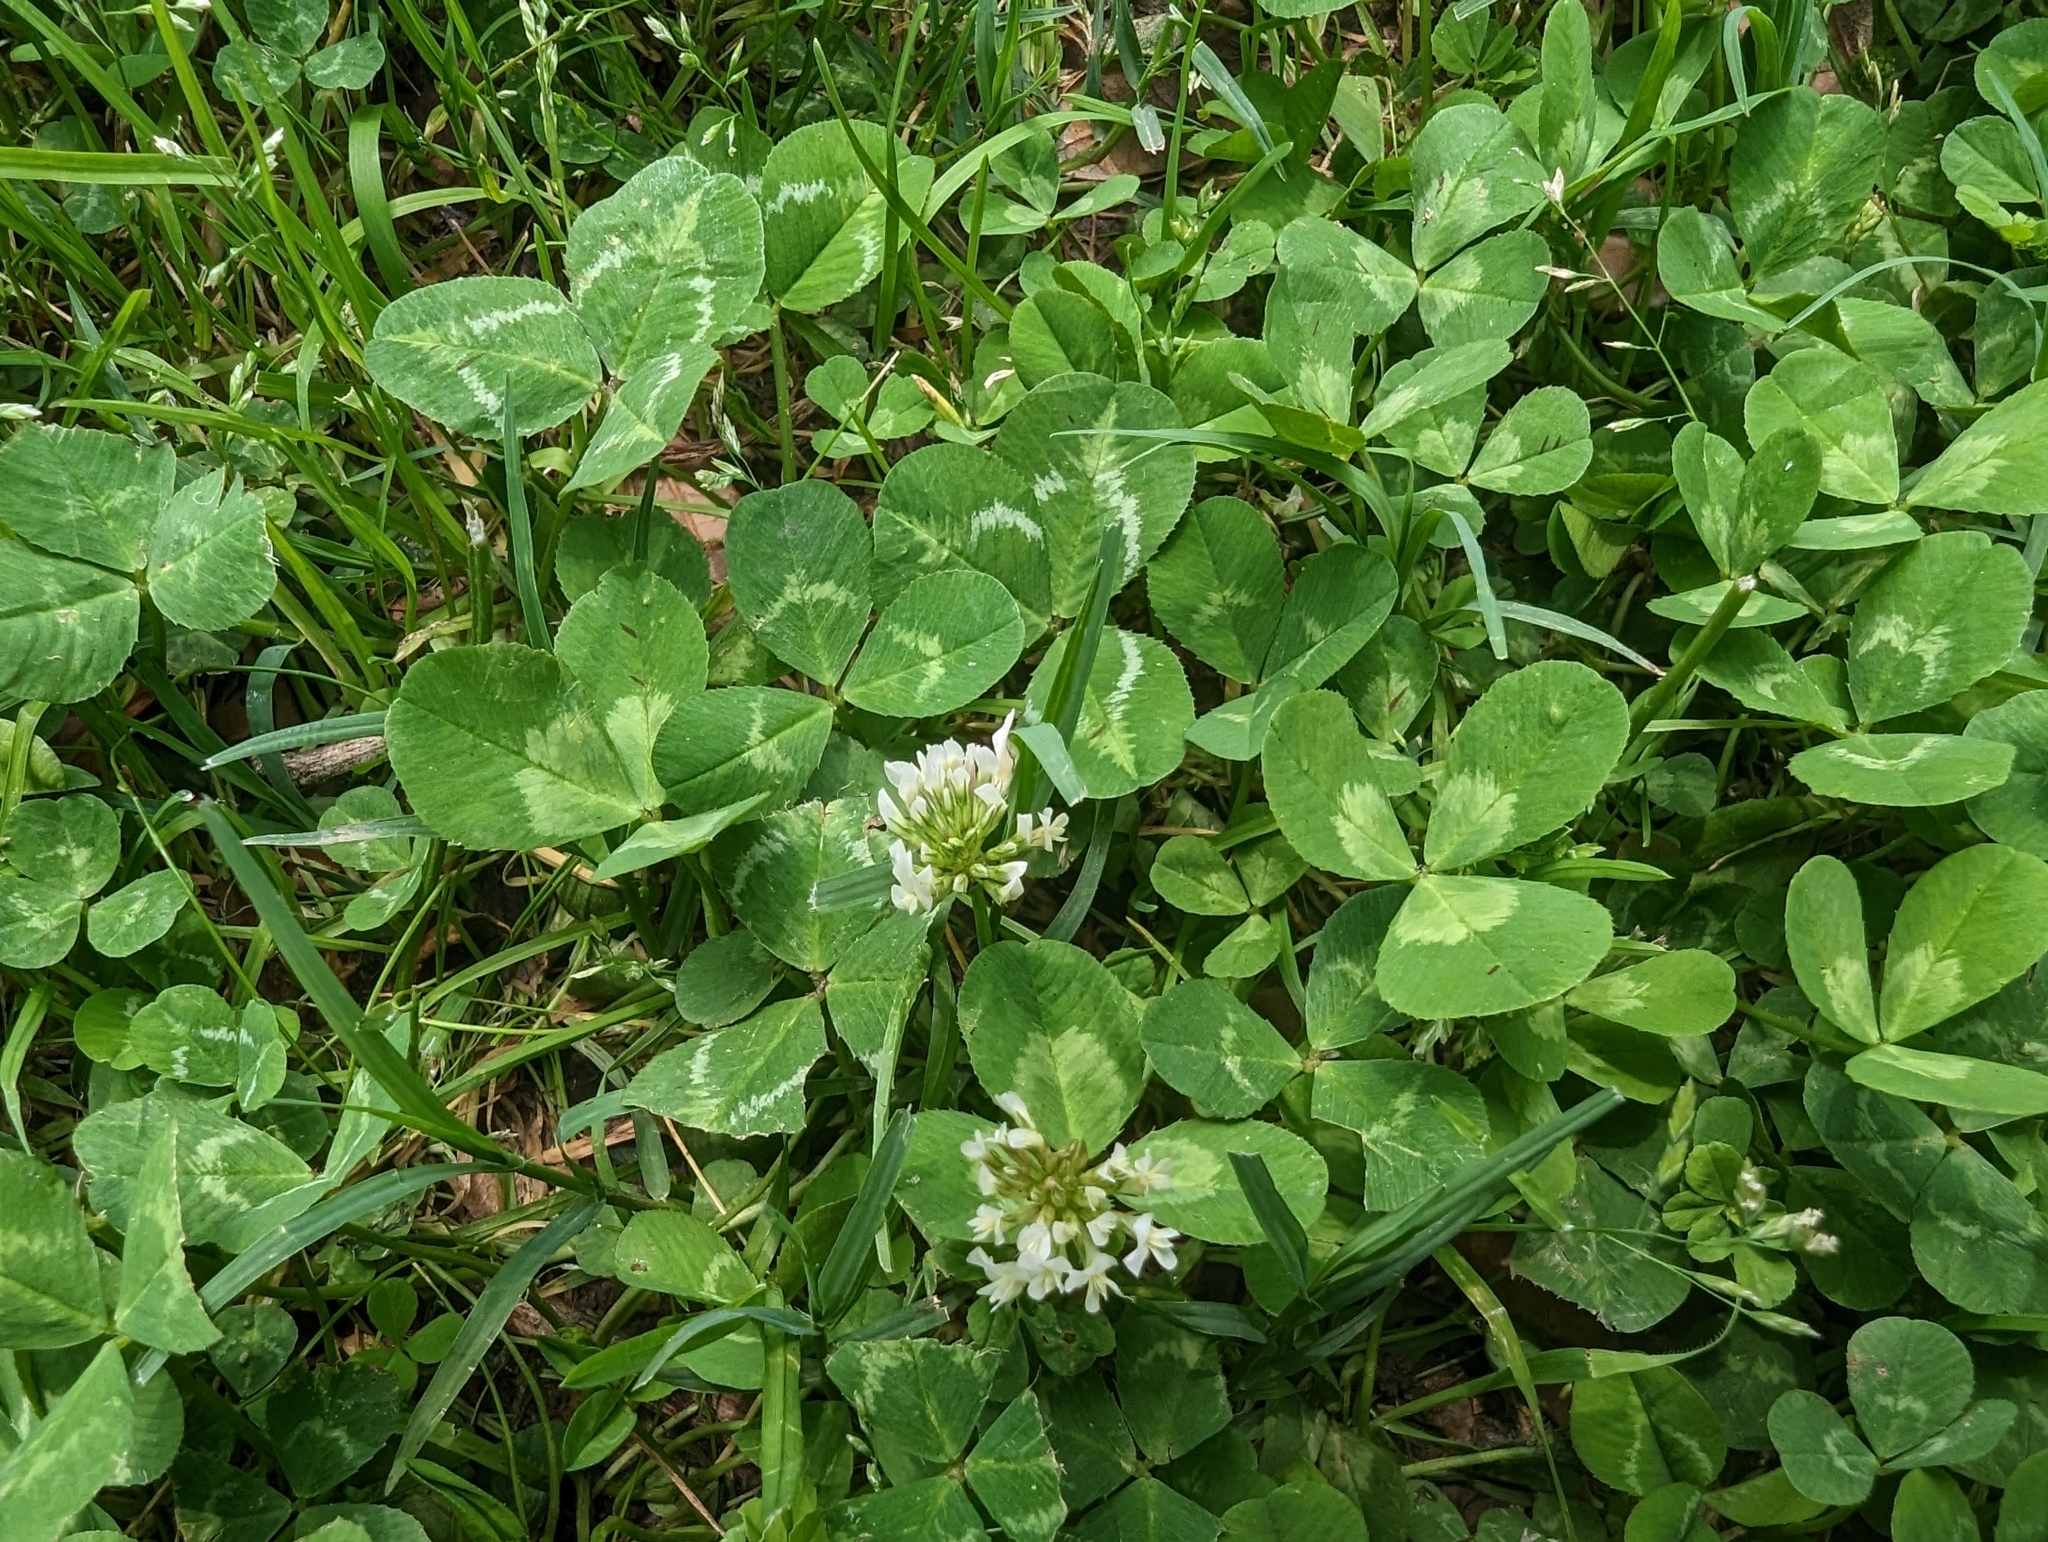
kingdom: Plantae
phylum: Tracheophyta
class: Magnoliopsida
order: Fabales
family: Fabaceae
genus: Trifolium
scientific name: Trifolium repens
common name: White clover
